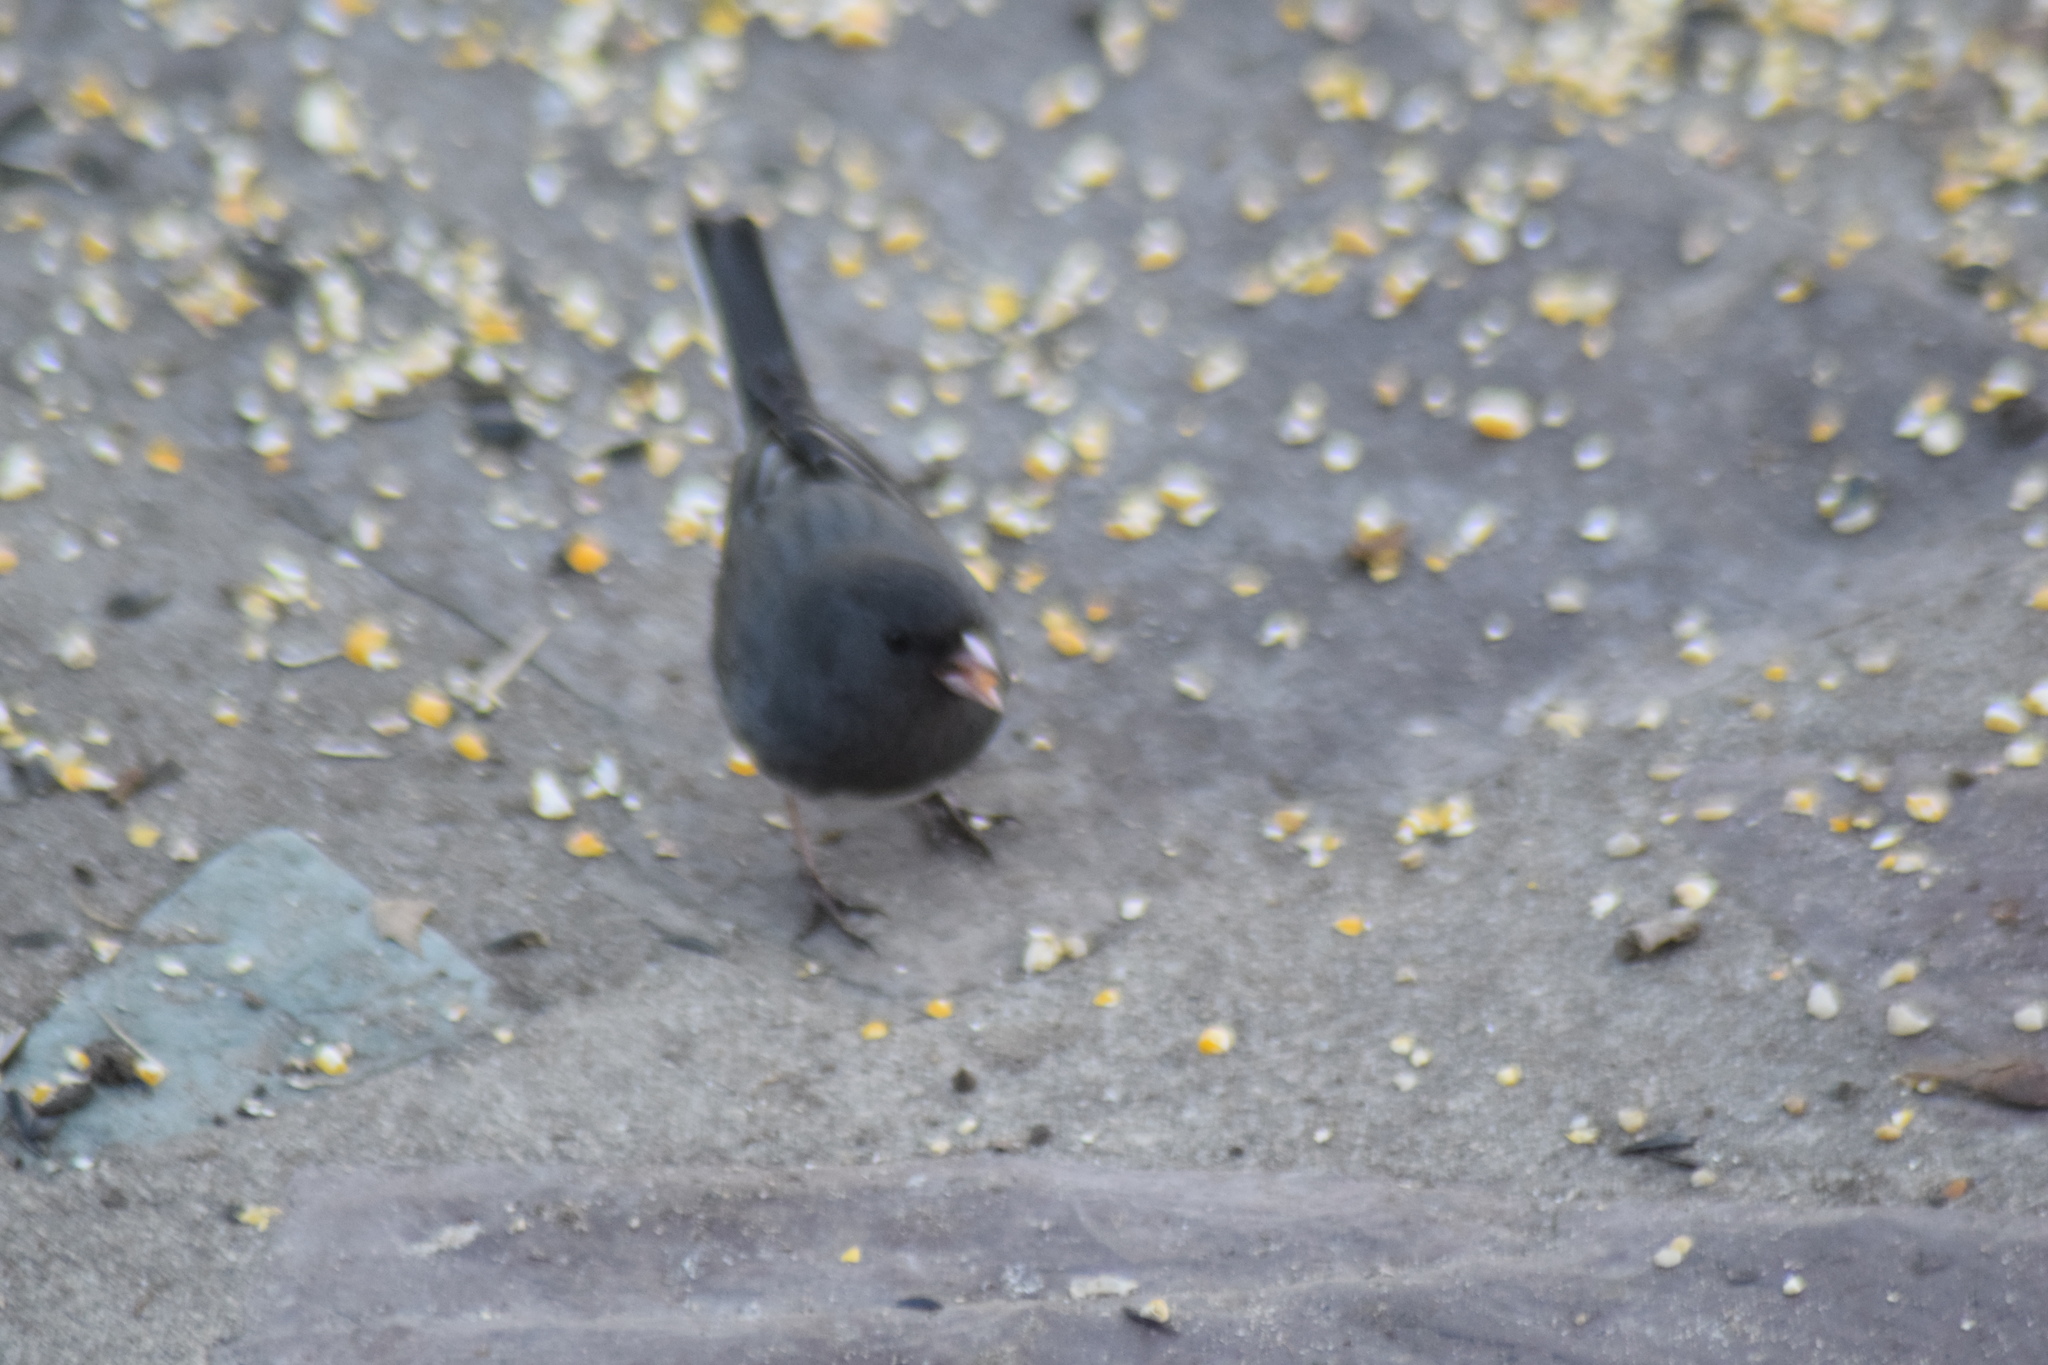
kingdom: Animalia
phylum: Chordata
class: Aves
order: Passeriformes
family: Passerellidae
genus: Junco
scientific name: Junco hyemalis
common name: Dark-eyed junco
